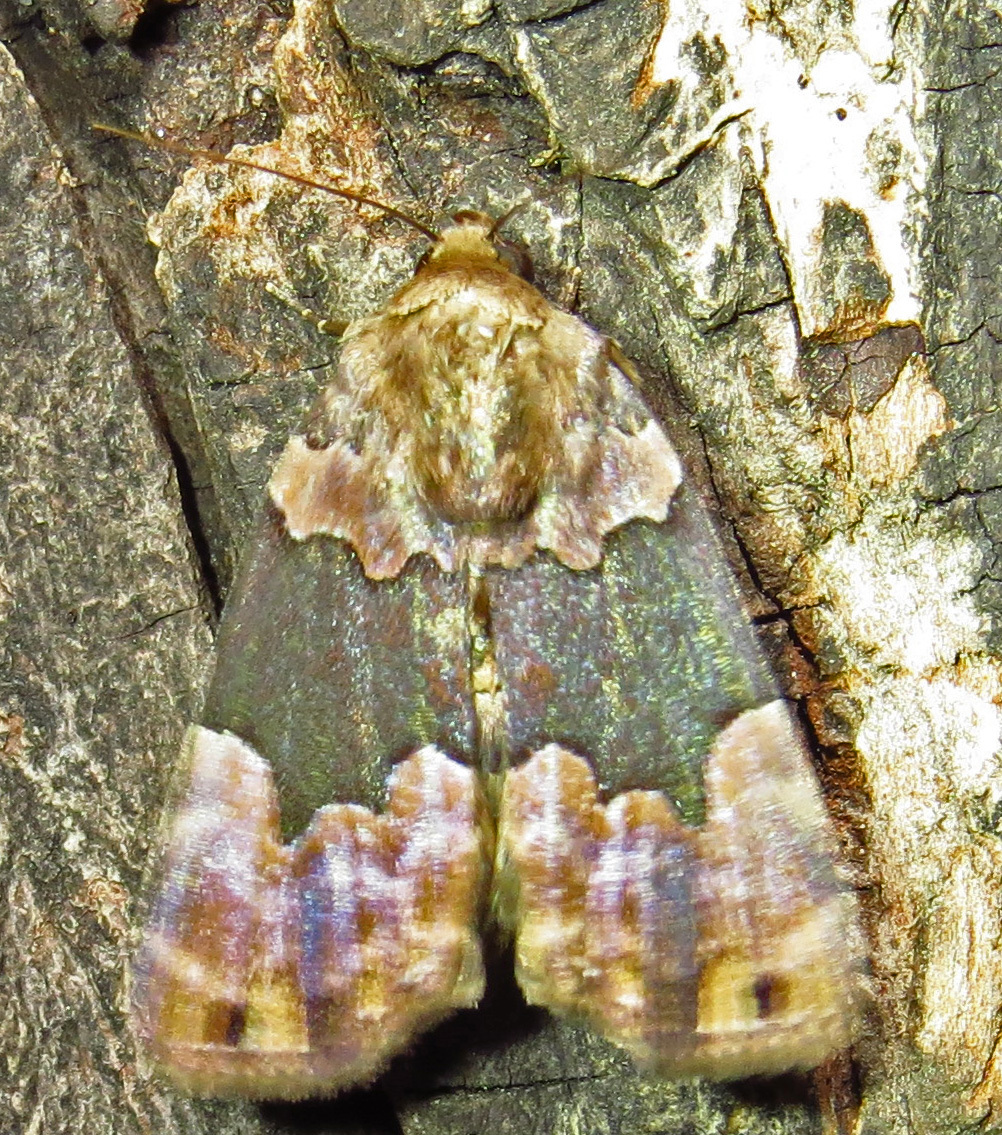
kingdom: Animalia
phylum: Arthropoda
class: Insecta
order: Lepidoptera
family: Erebidae
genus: Dinumma
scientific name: Dinumma deponens
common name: Purplish moth
